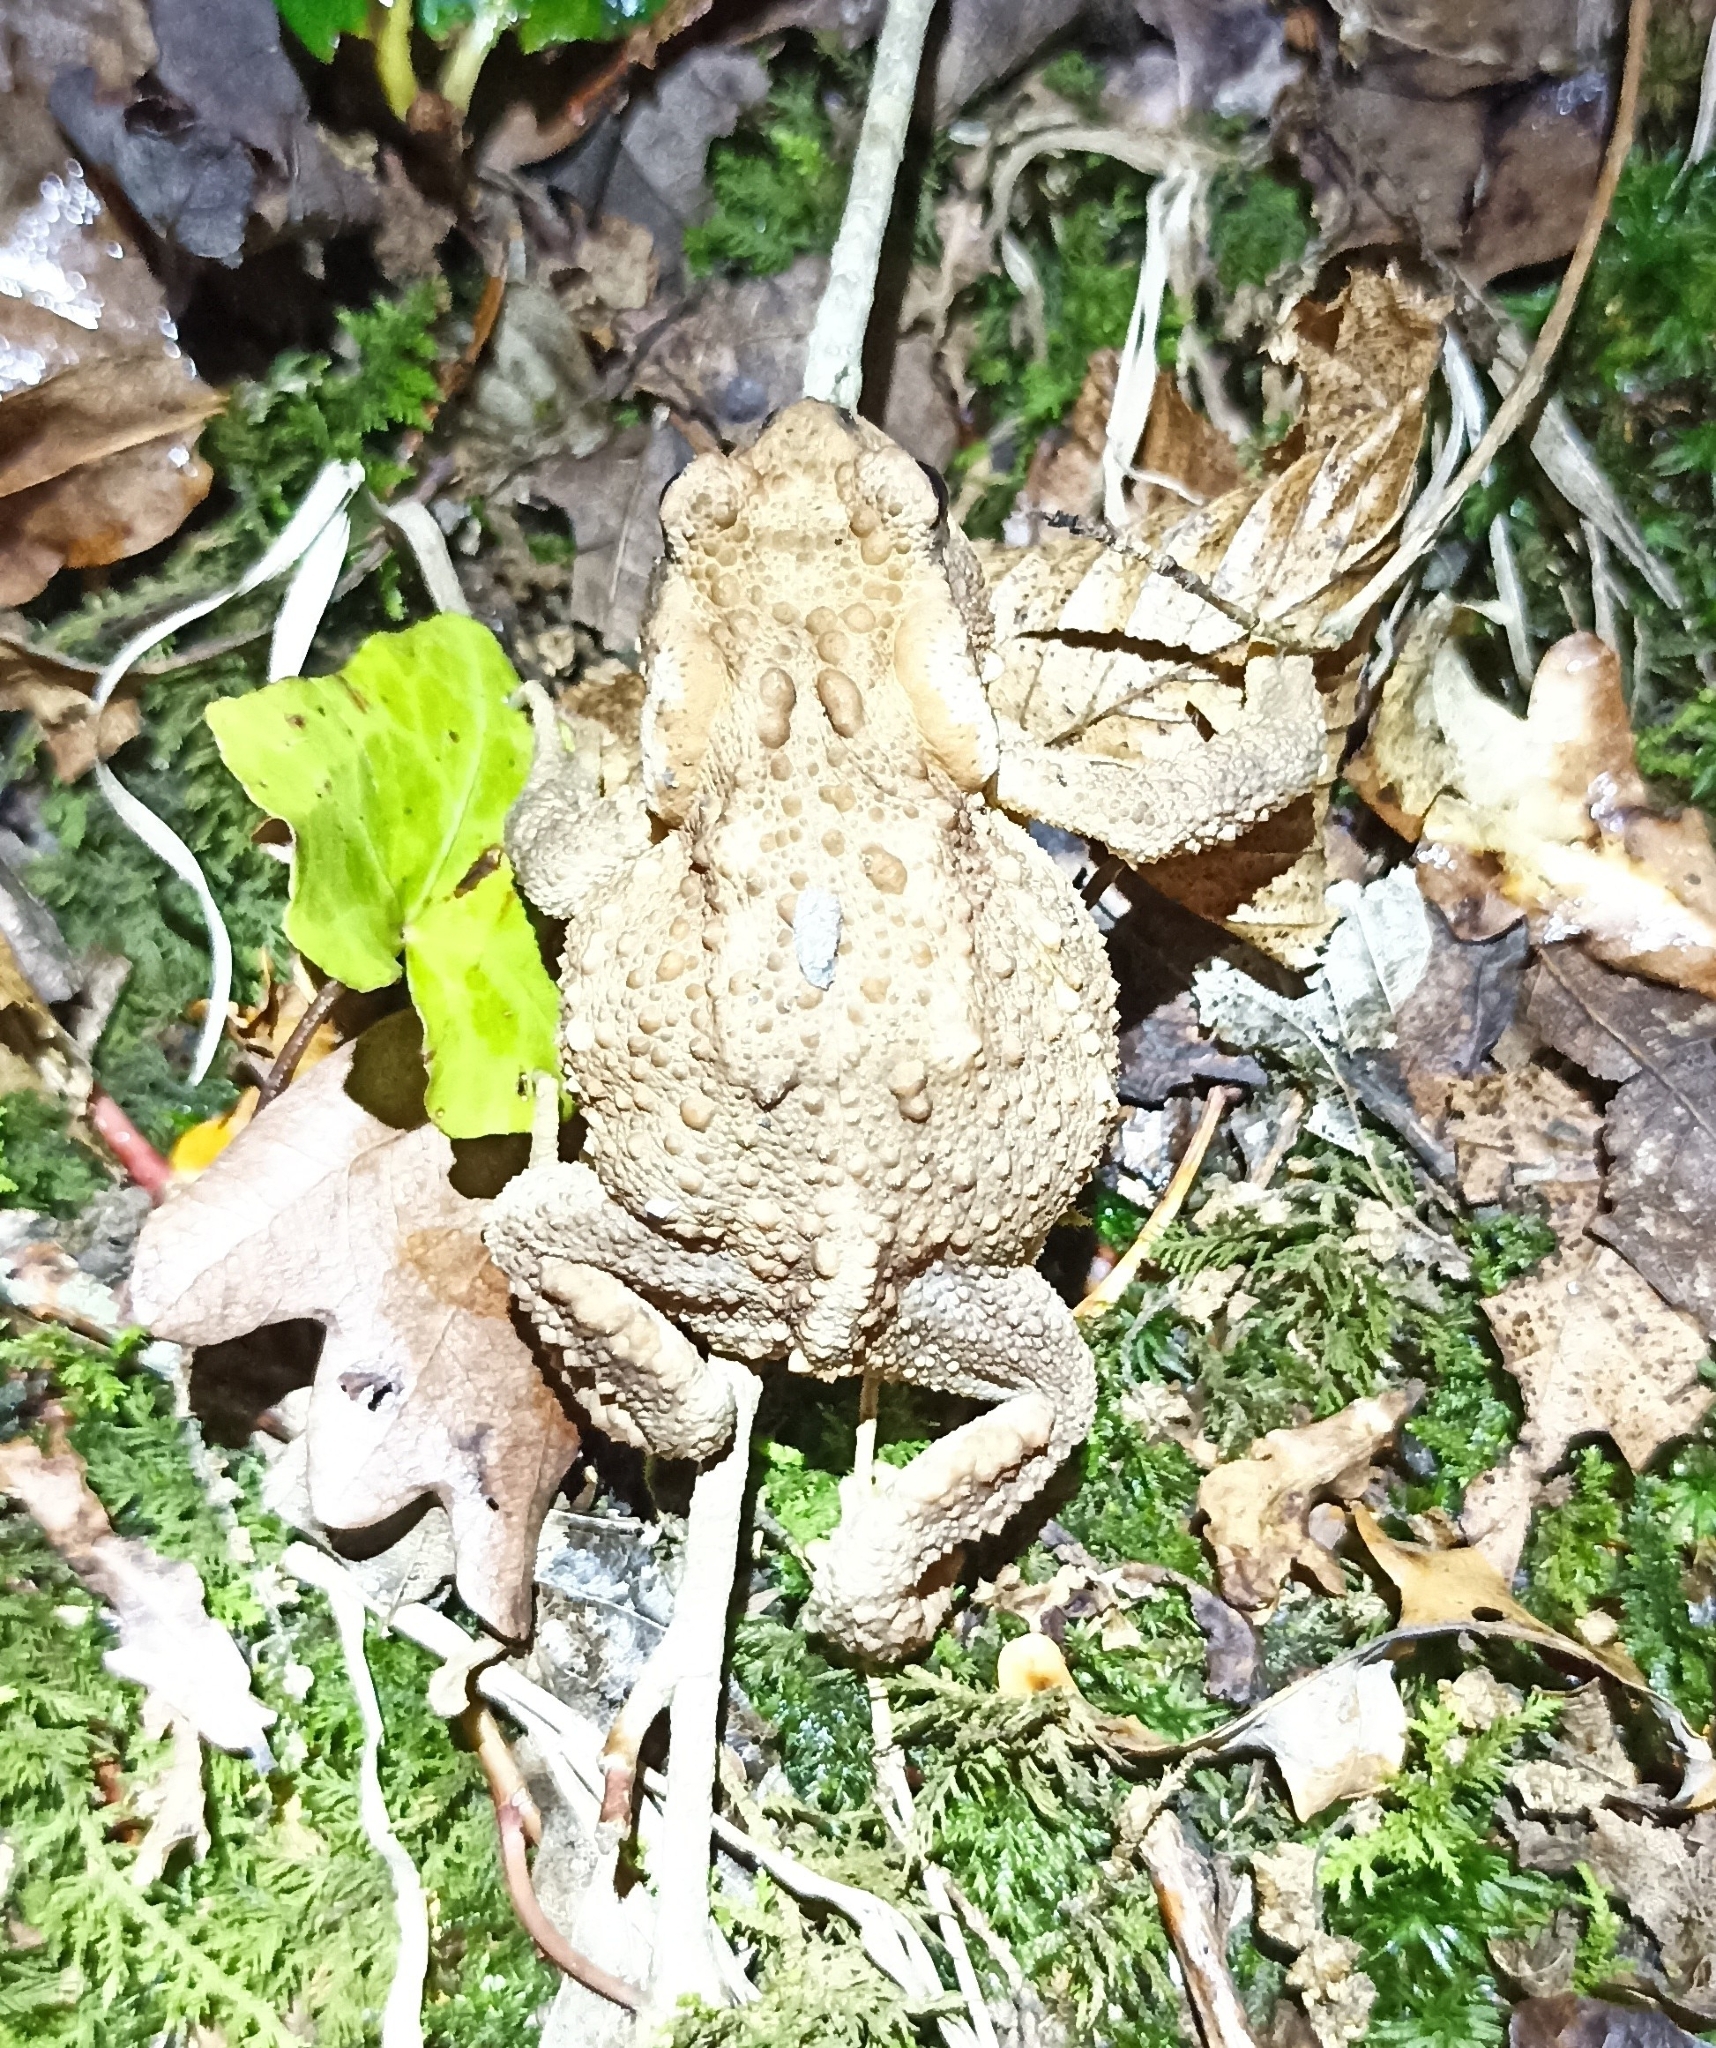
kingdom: Animalia
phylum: Chordata
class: Amphibia
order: Anura
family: Bufonidae
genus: Bufo
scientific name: Bufo spinosus
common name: Western common toad
